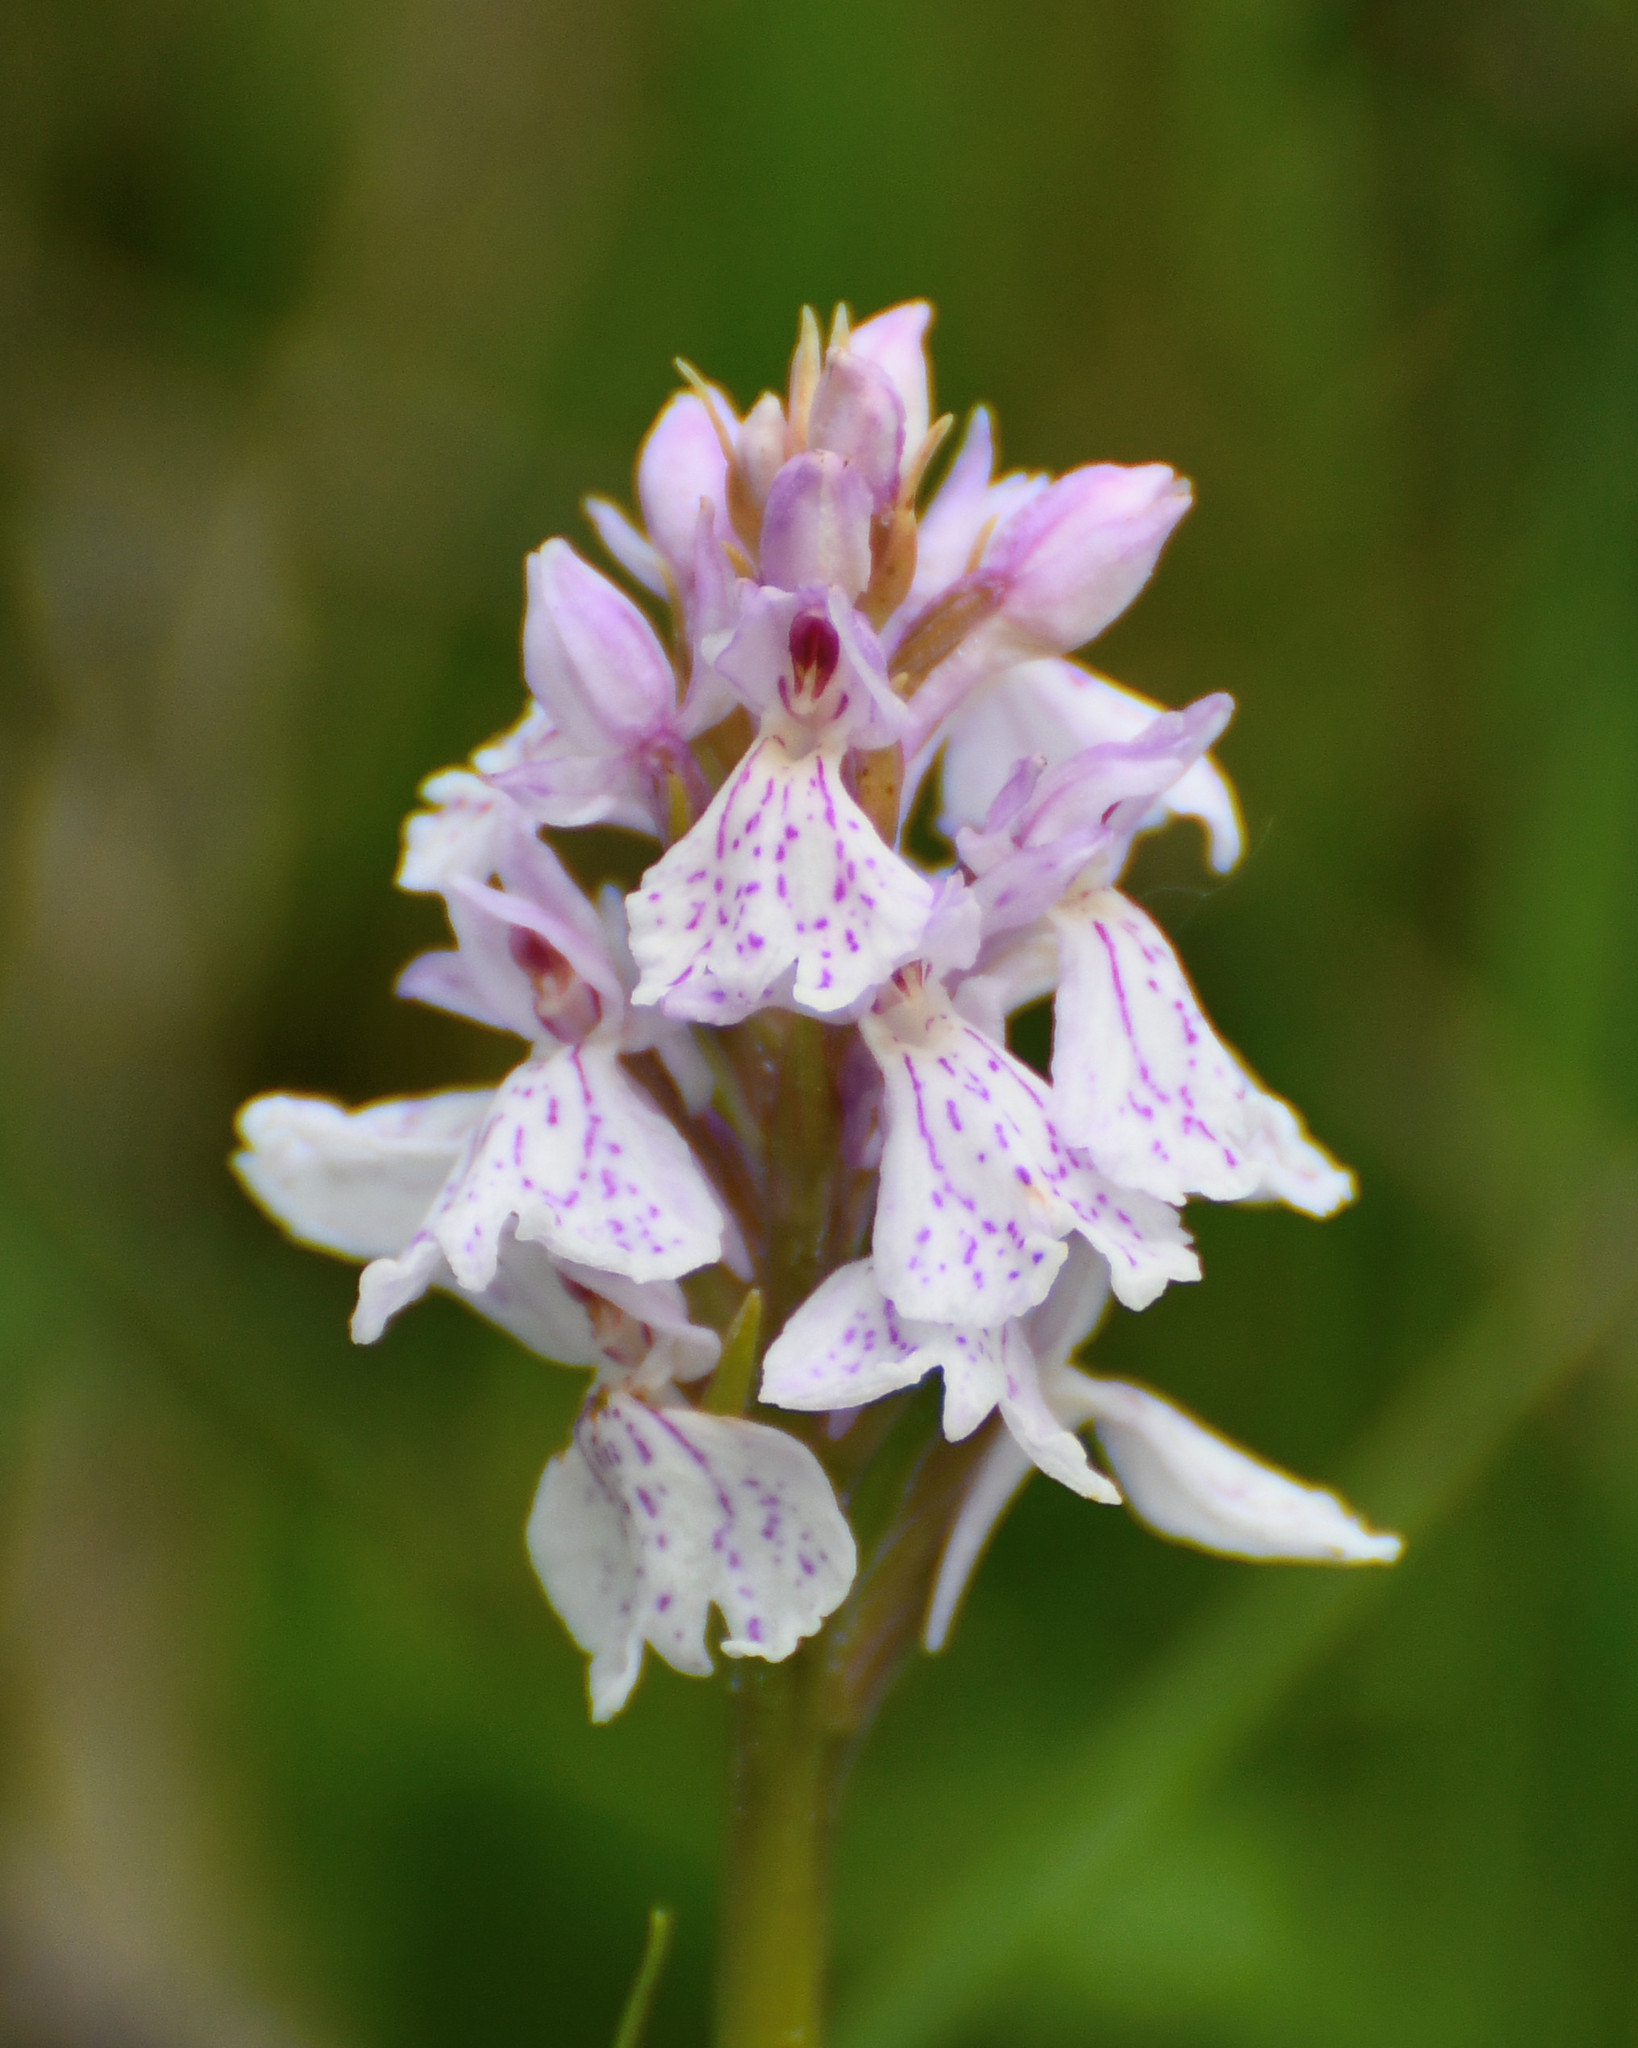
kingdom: Plantae
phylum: Tracheophyta
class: Liliopsida
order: Asparagales
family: Orchidaceae
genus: Dactylorhiza
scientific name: Dactylorhiza maculata
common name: Heath spotted-orchid
